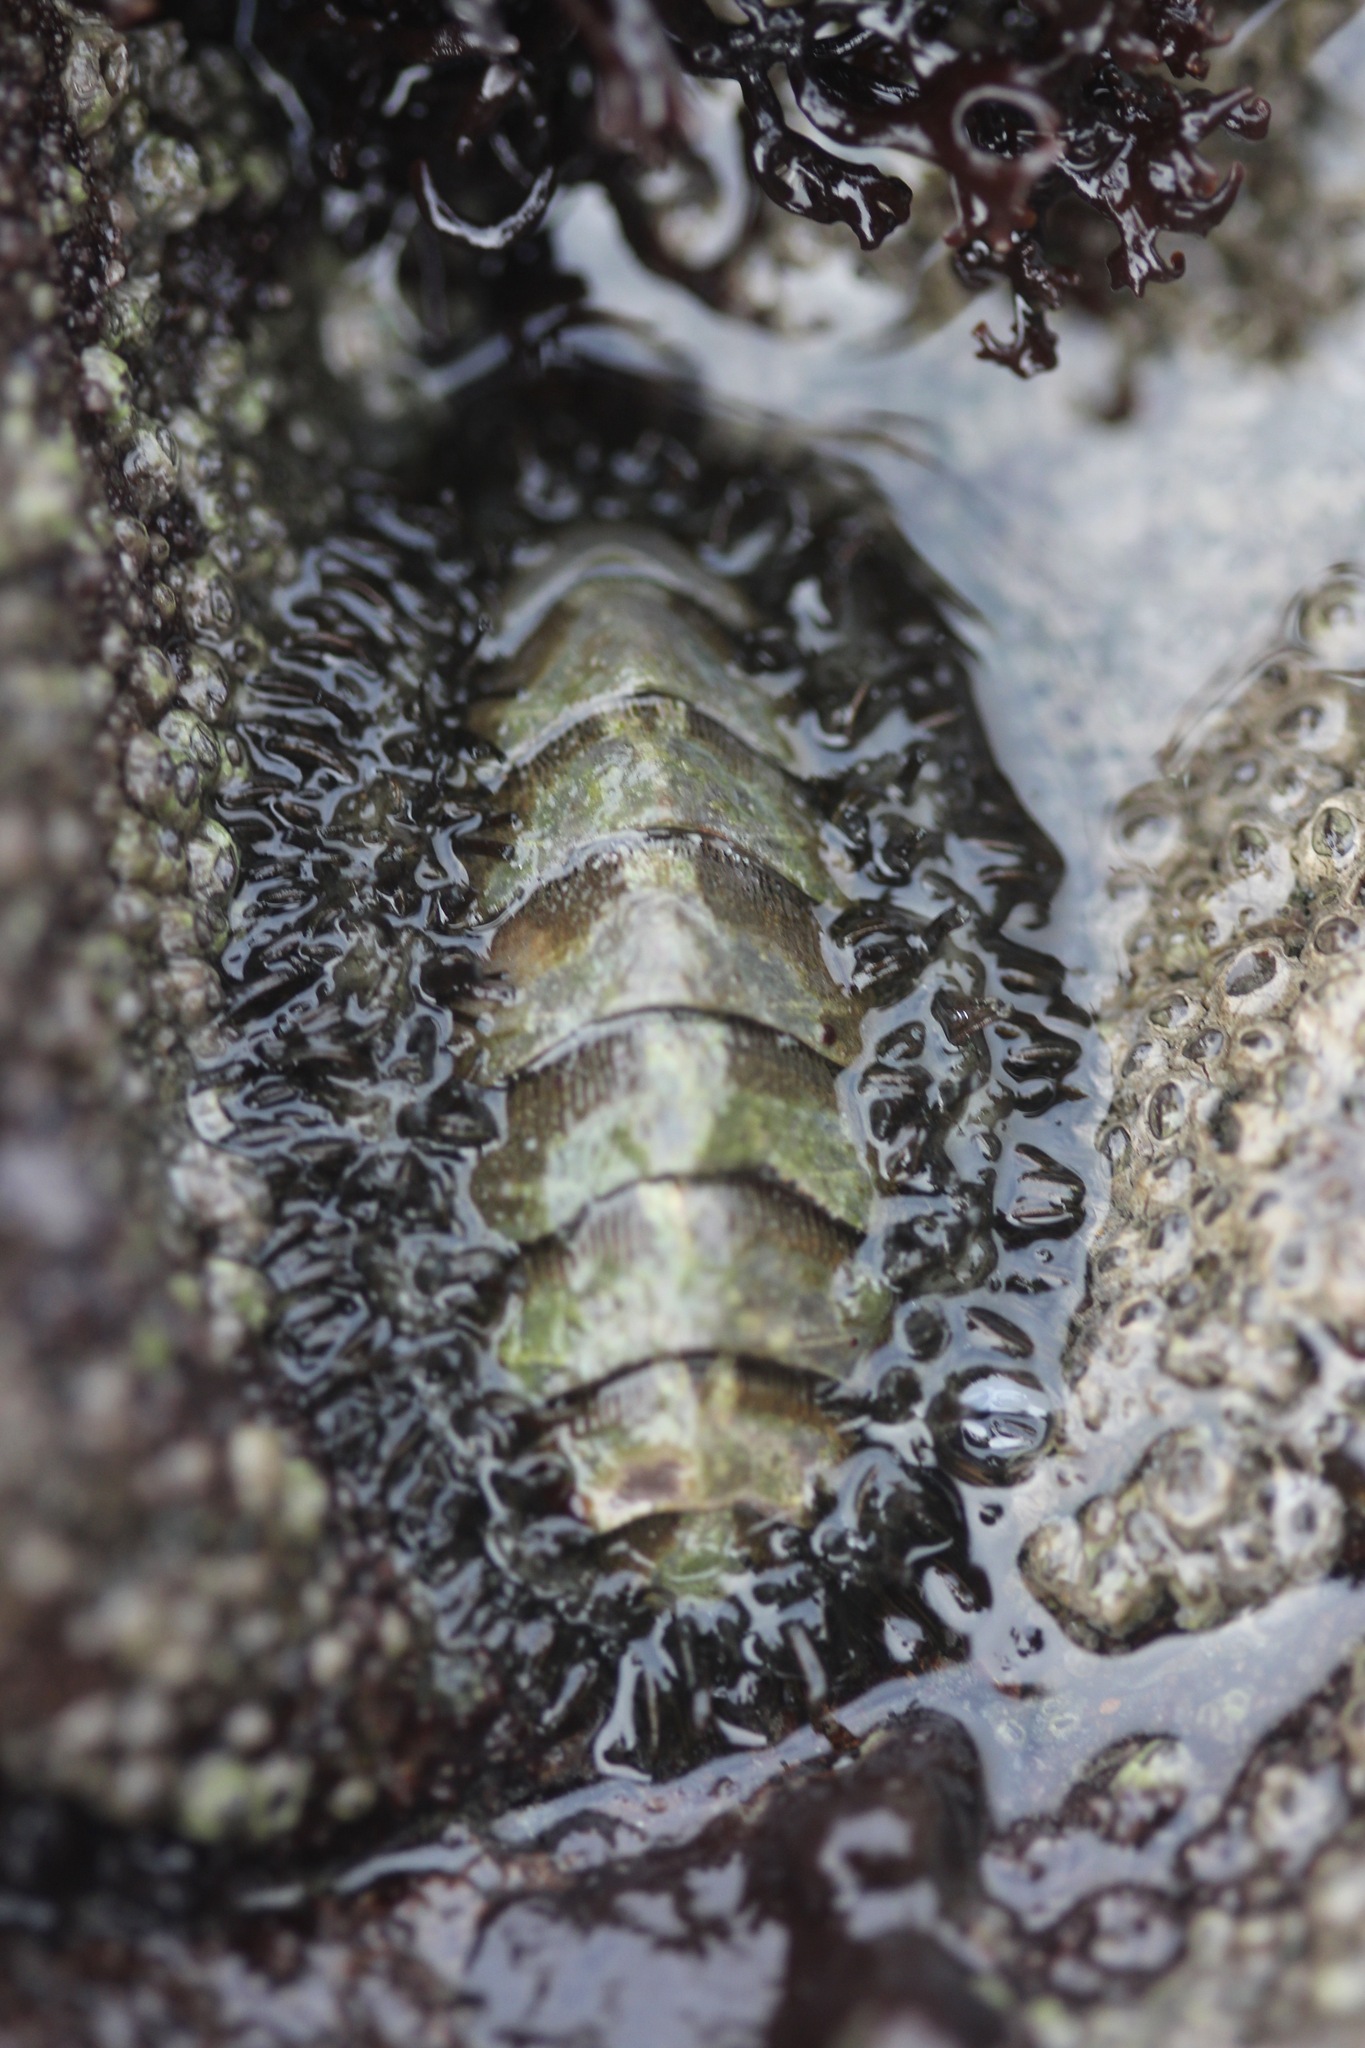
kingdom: Animalia
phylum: Mollusca
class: Polyplacophora
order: Chitonida
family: Mopaliidae
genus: Mopalia
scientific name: Mopalia muscosa
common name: Mossy chiton
